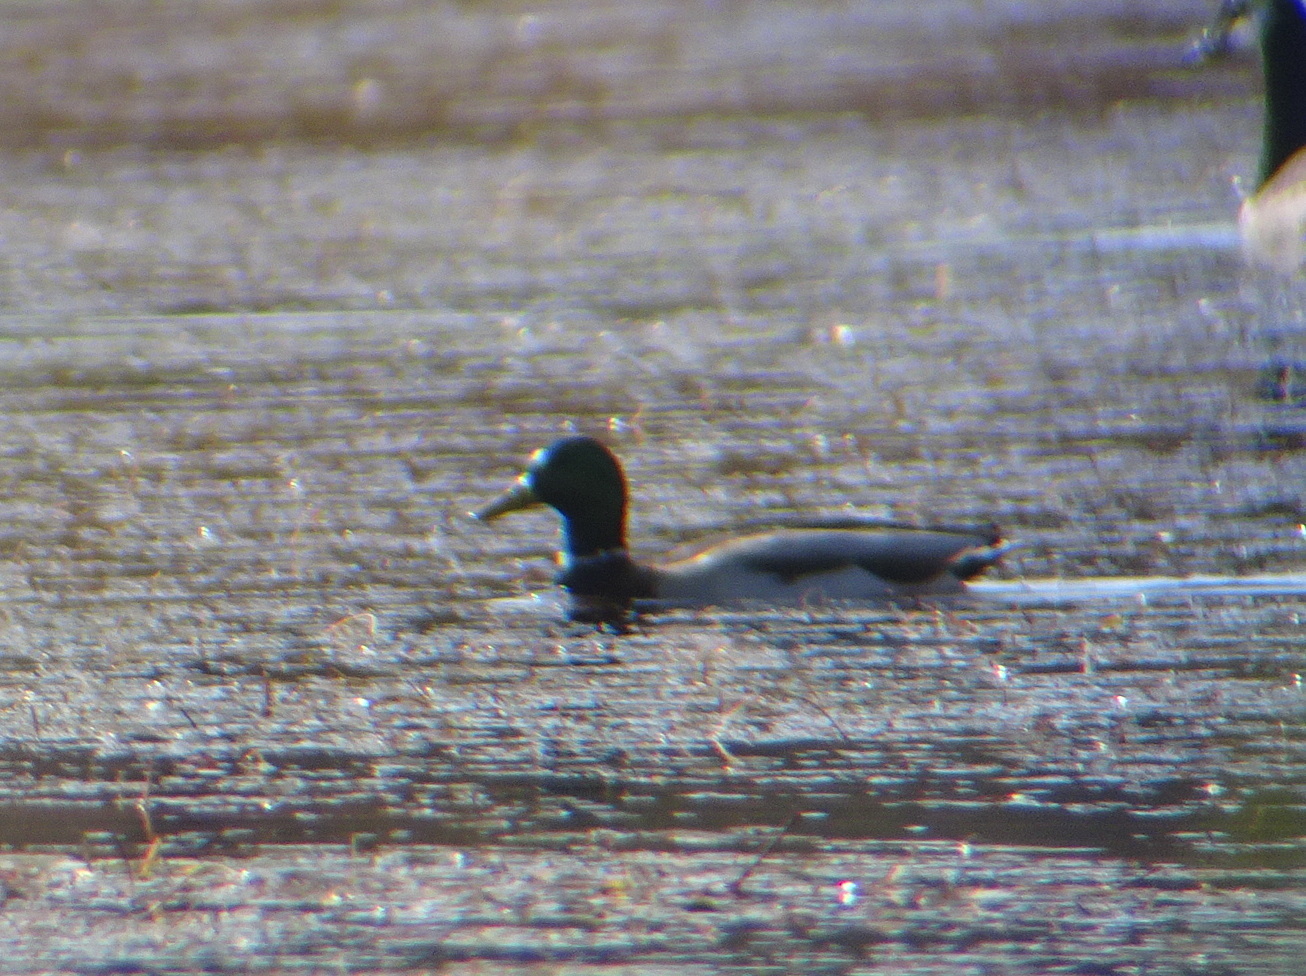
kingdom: Animalia
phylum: Chordata
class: Aves
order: Anseriformes
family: Anatidae
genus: Anas
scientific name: Anas platyrhynchos
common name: Mallard
